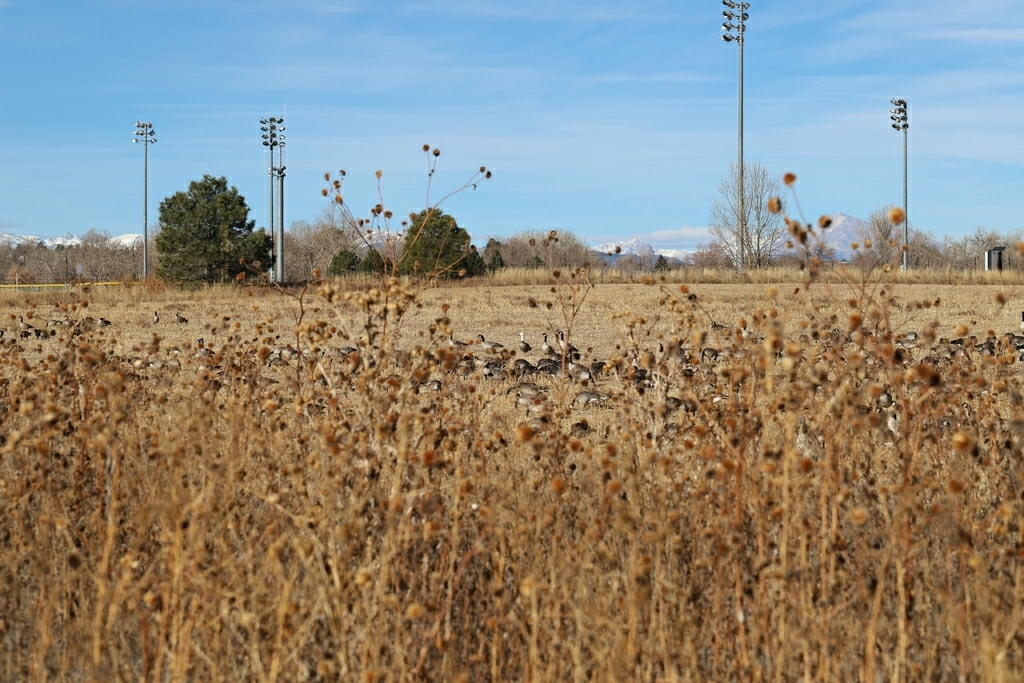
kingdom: Animalia
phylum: Chordata
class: Aves
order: Anseriformes
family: Anatidae
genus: Branta
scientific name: Branta hutchinsii
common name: Cackling goose
